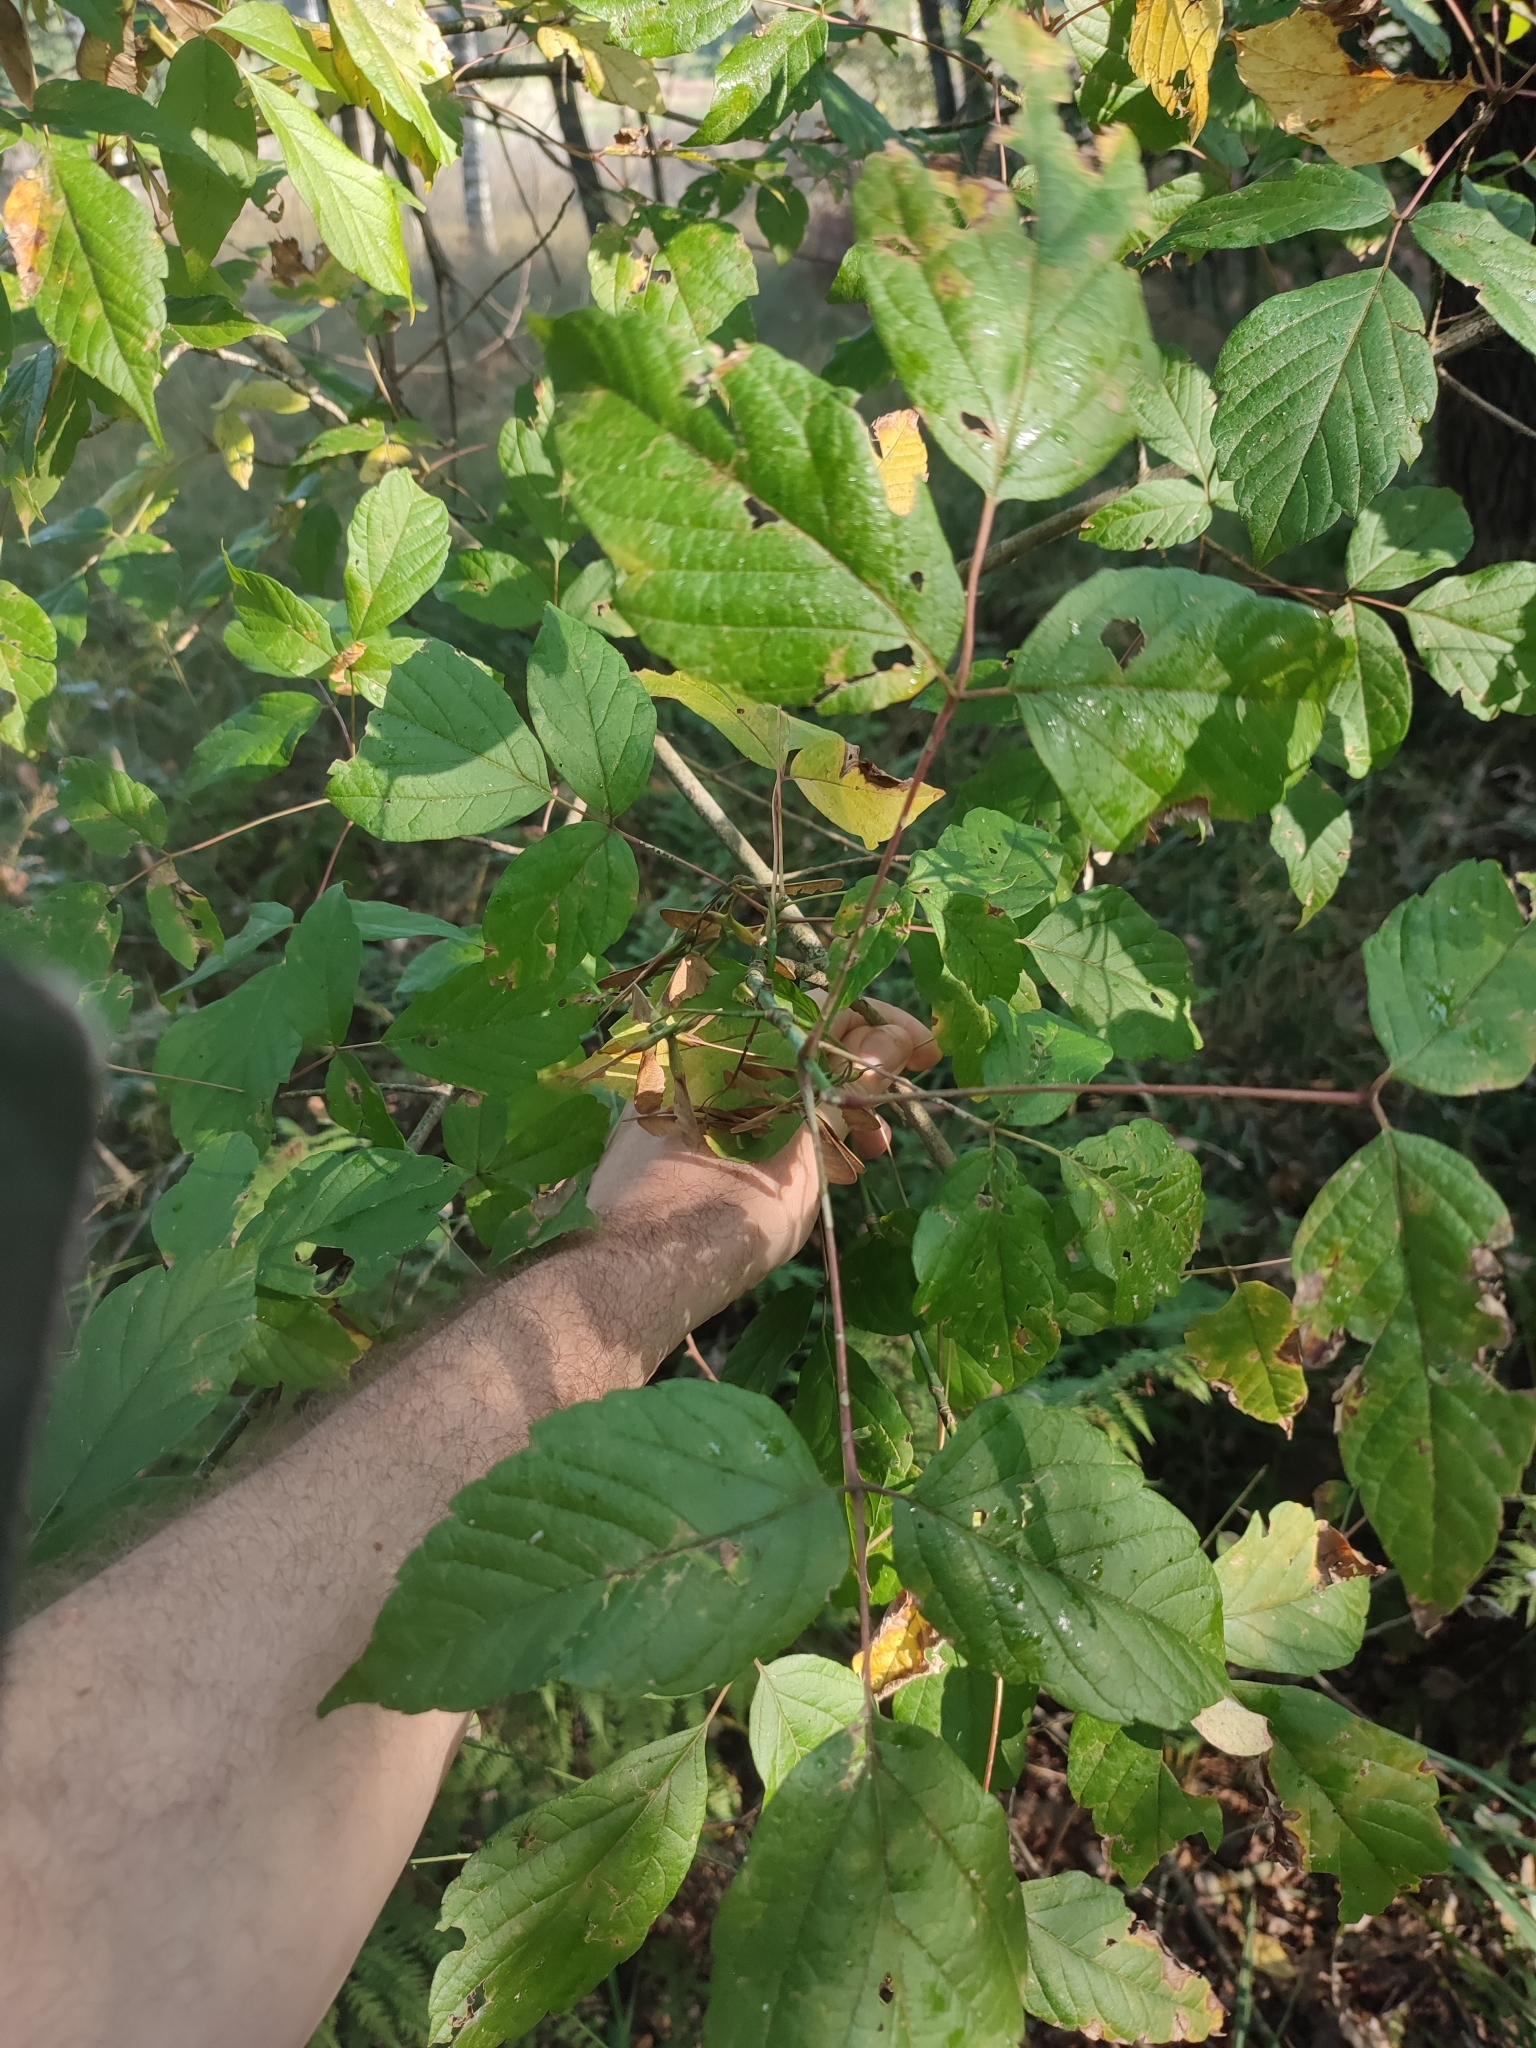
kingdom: Plantae
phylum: Tracheophyta
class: Magnoliopsida
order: Sapindales
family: Sapindaceae
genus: Acer
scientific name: Acer negundo
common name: Ashleaf maple
